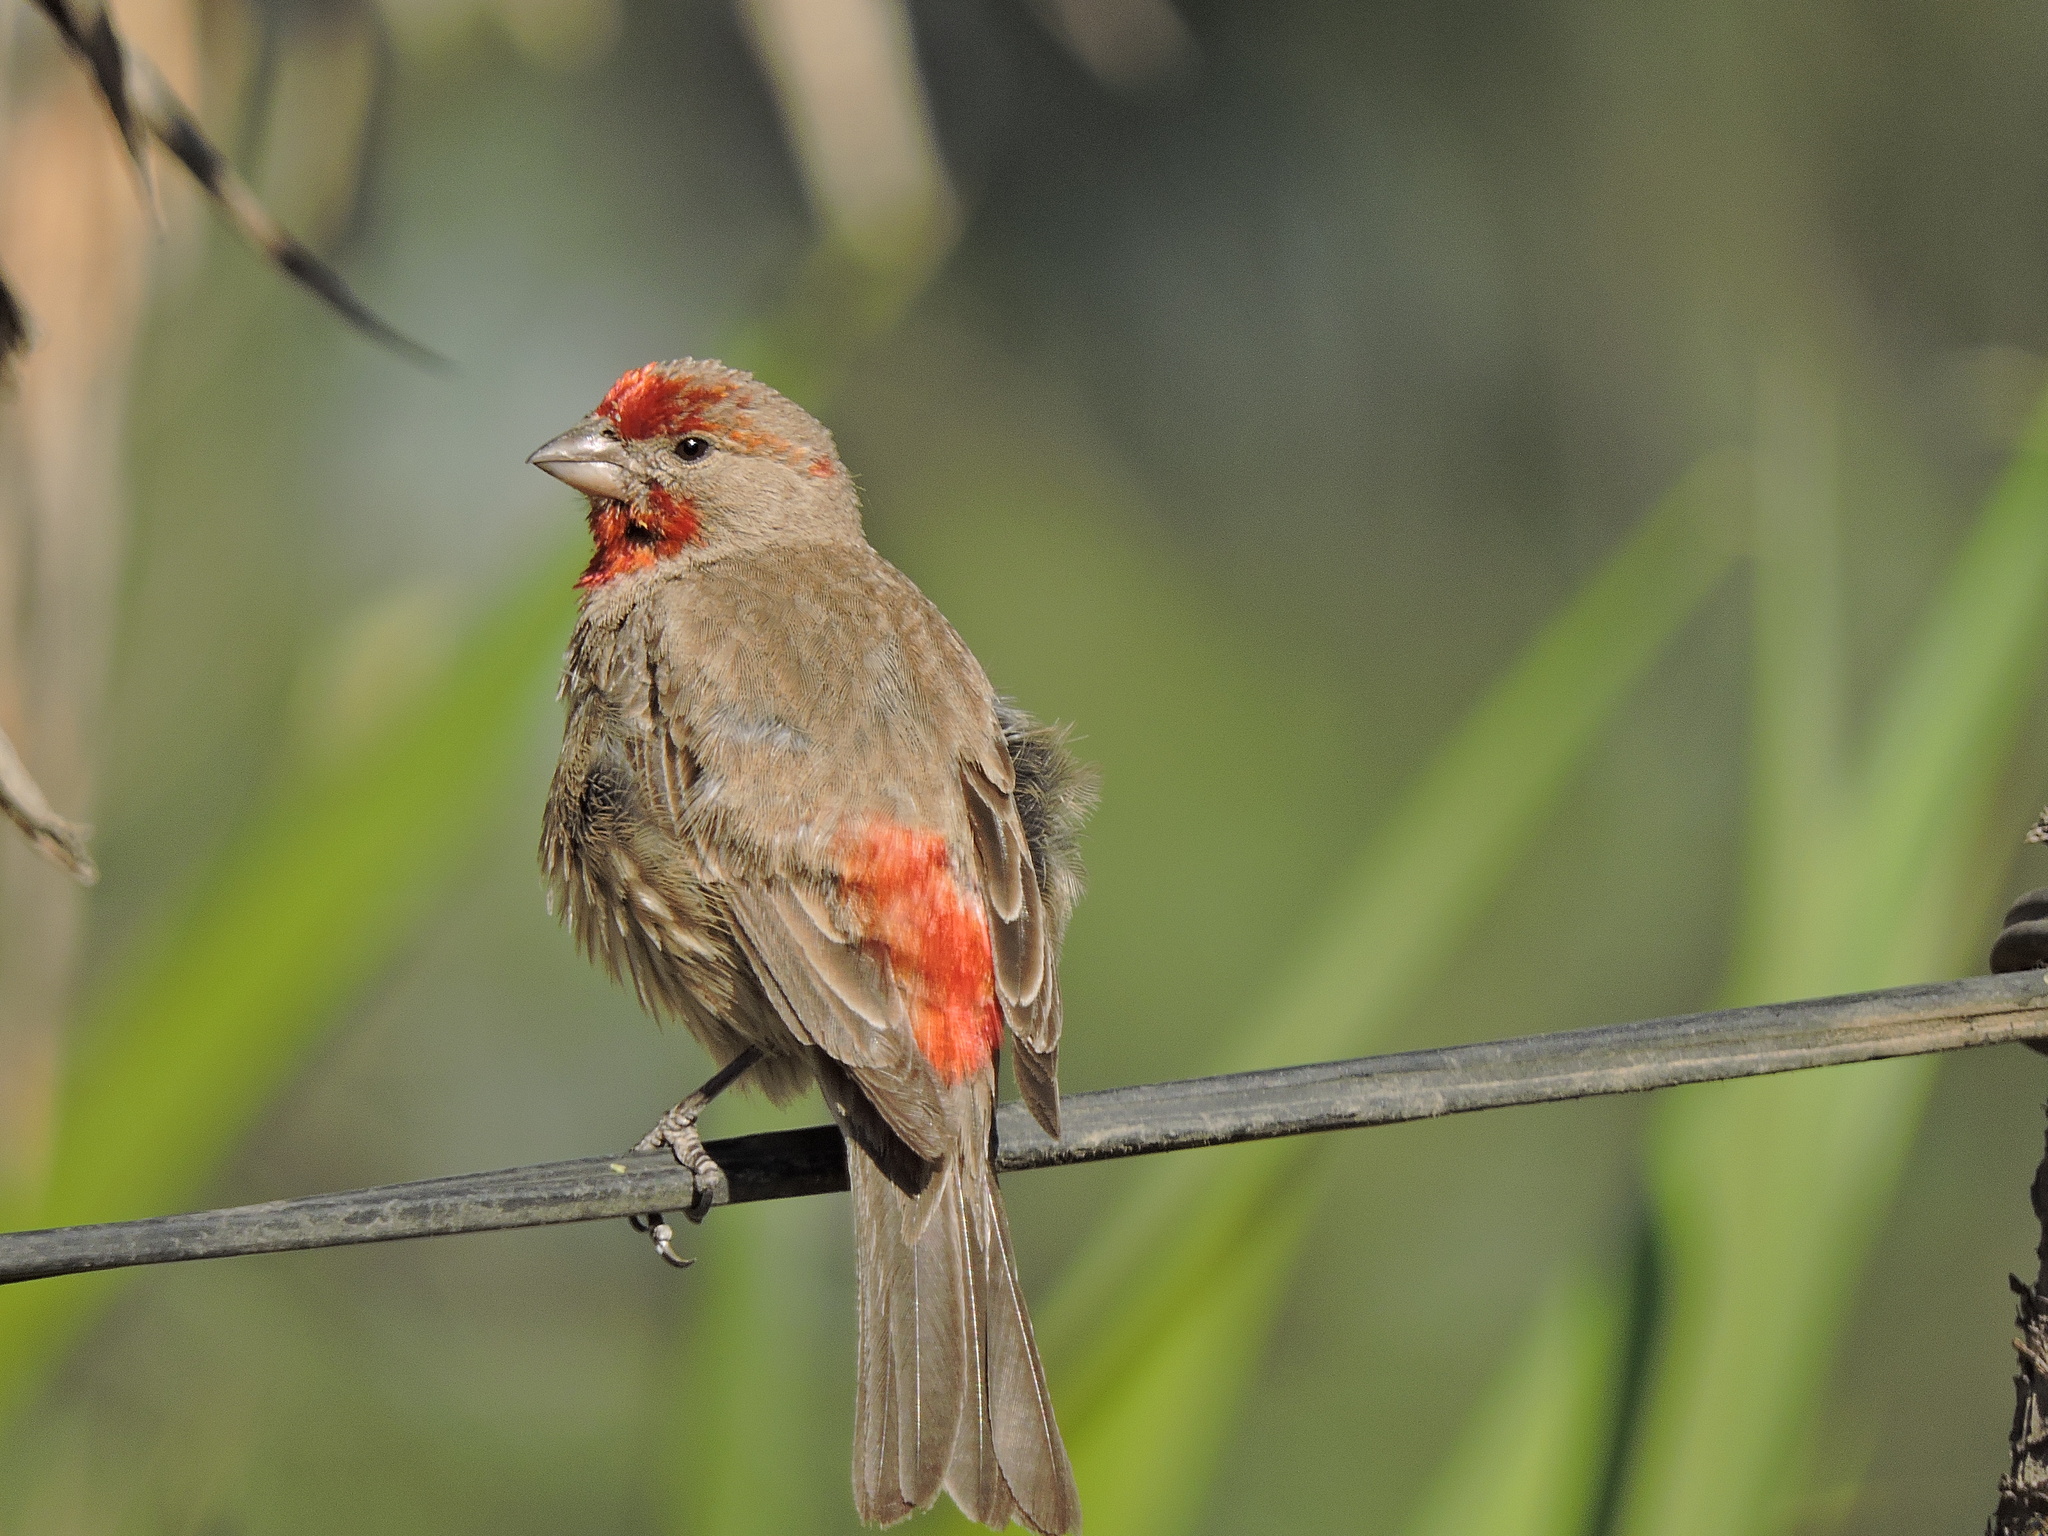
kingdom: Animalia
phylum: Chordata
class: Aves
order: Passeriformes
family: Fringillidae
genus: Haemorhous
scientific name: Haemorhous mexicanus
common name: House finch
